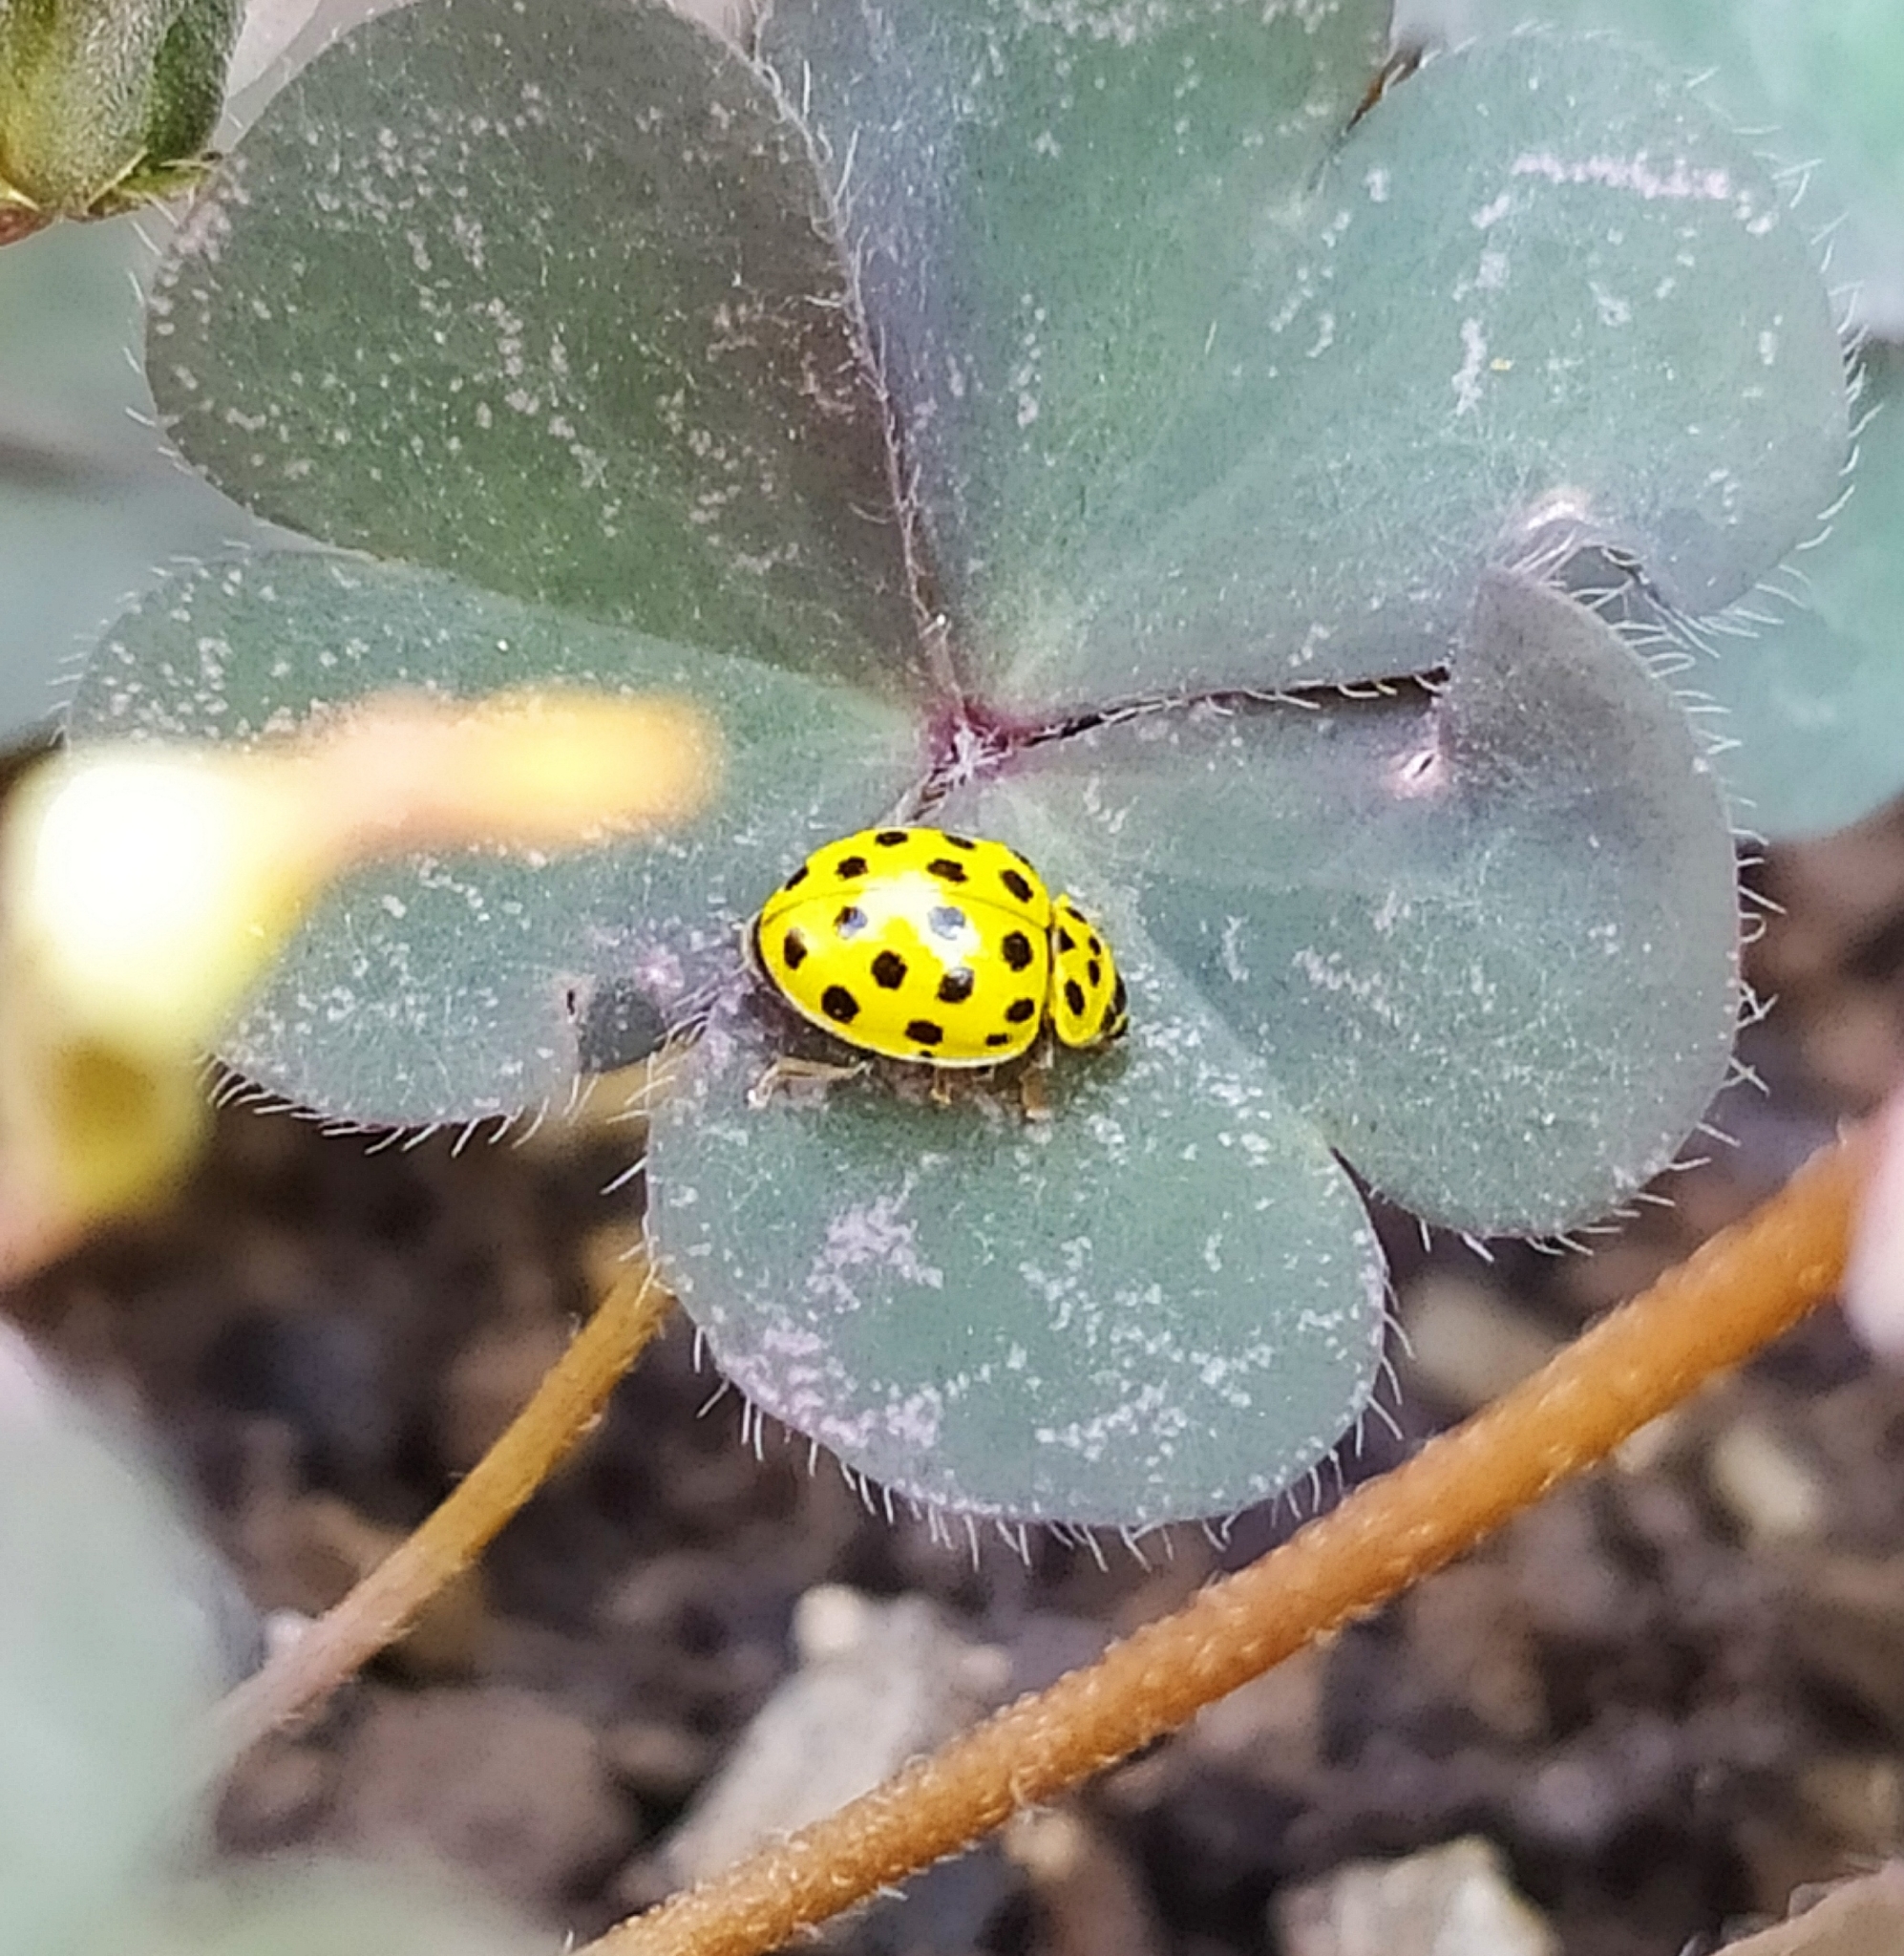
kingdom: Animalia
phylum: Arthropoda
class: Insecta
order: Coleoptera
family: Coccinellidae
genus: Psyllobora
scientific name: Psyllobora vigintiduopunctata
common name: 22-spot ladybird
